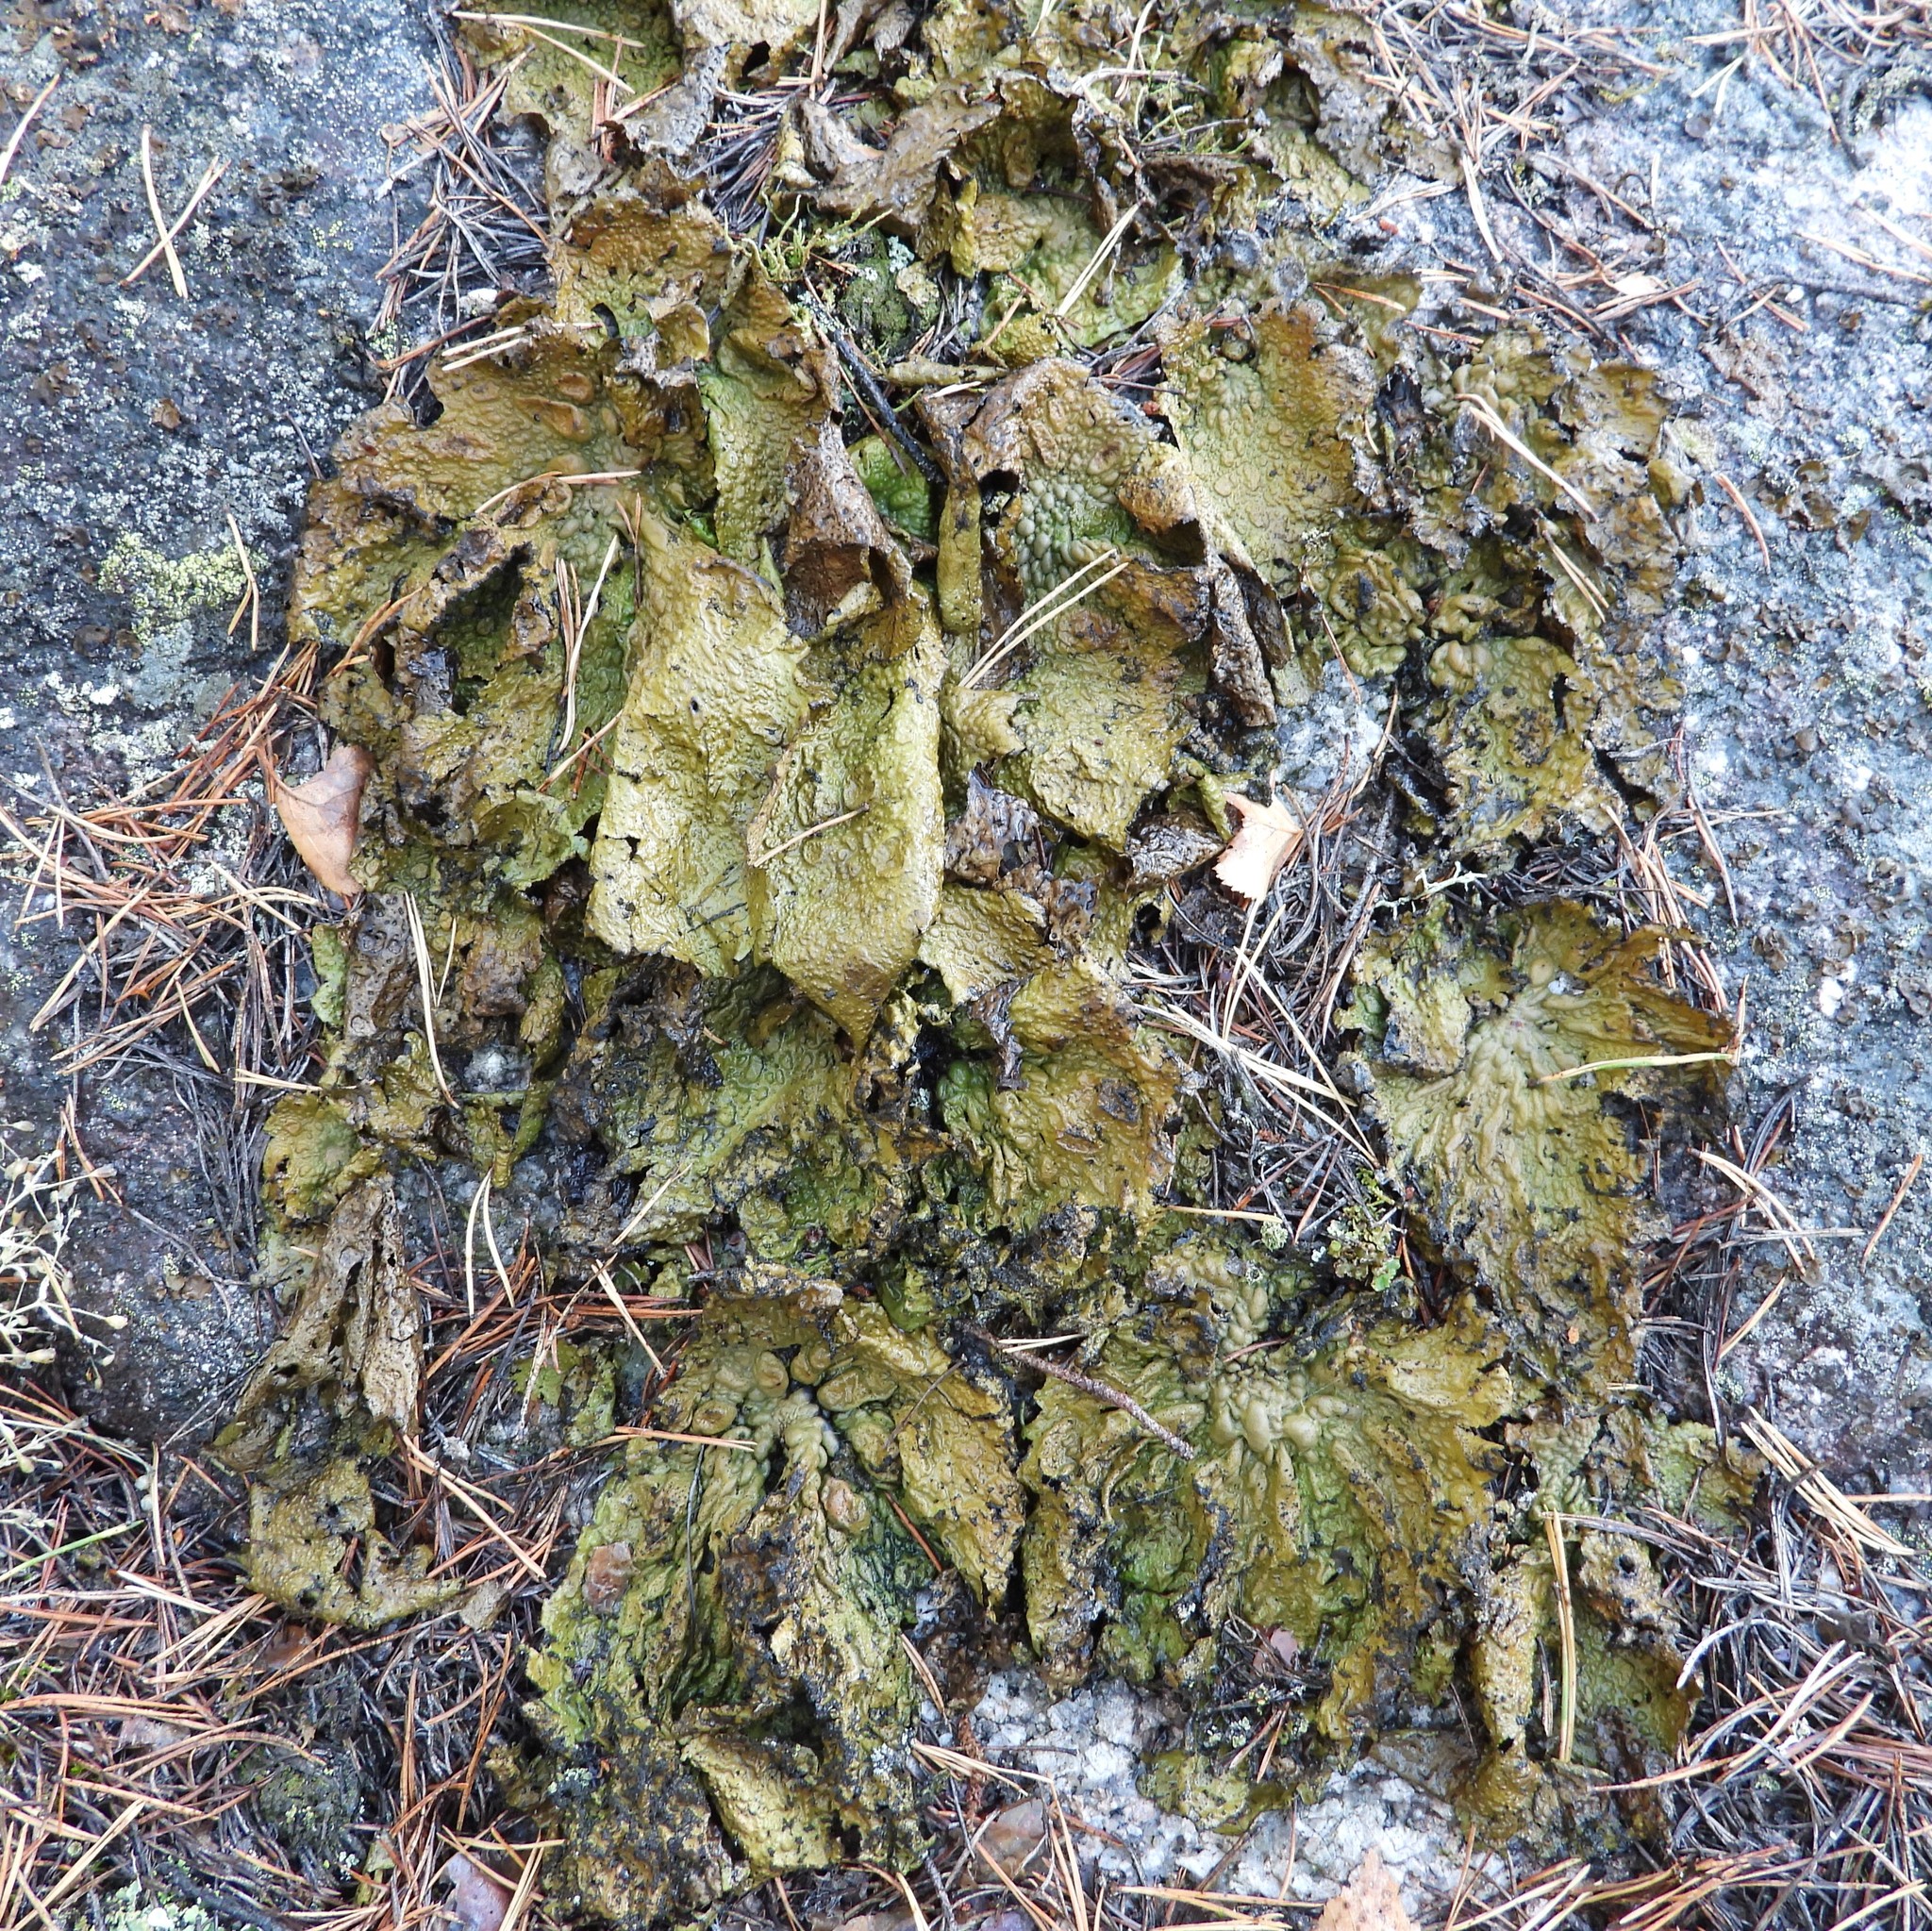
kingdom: Fungi
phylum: Ascomycota
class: Lecanoromycetes
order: Umbilicariales
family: Umbilicariaceae
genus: Lasallia
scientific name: Lasallia pustulata
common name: Blistered toadskin lichen
